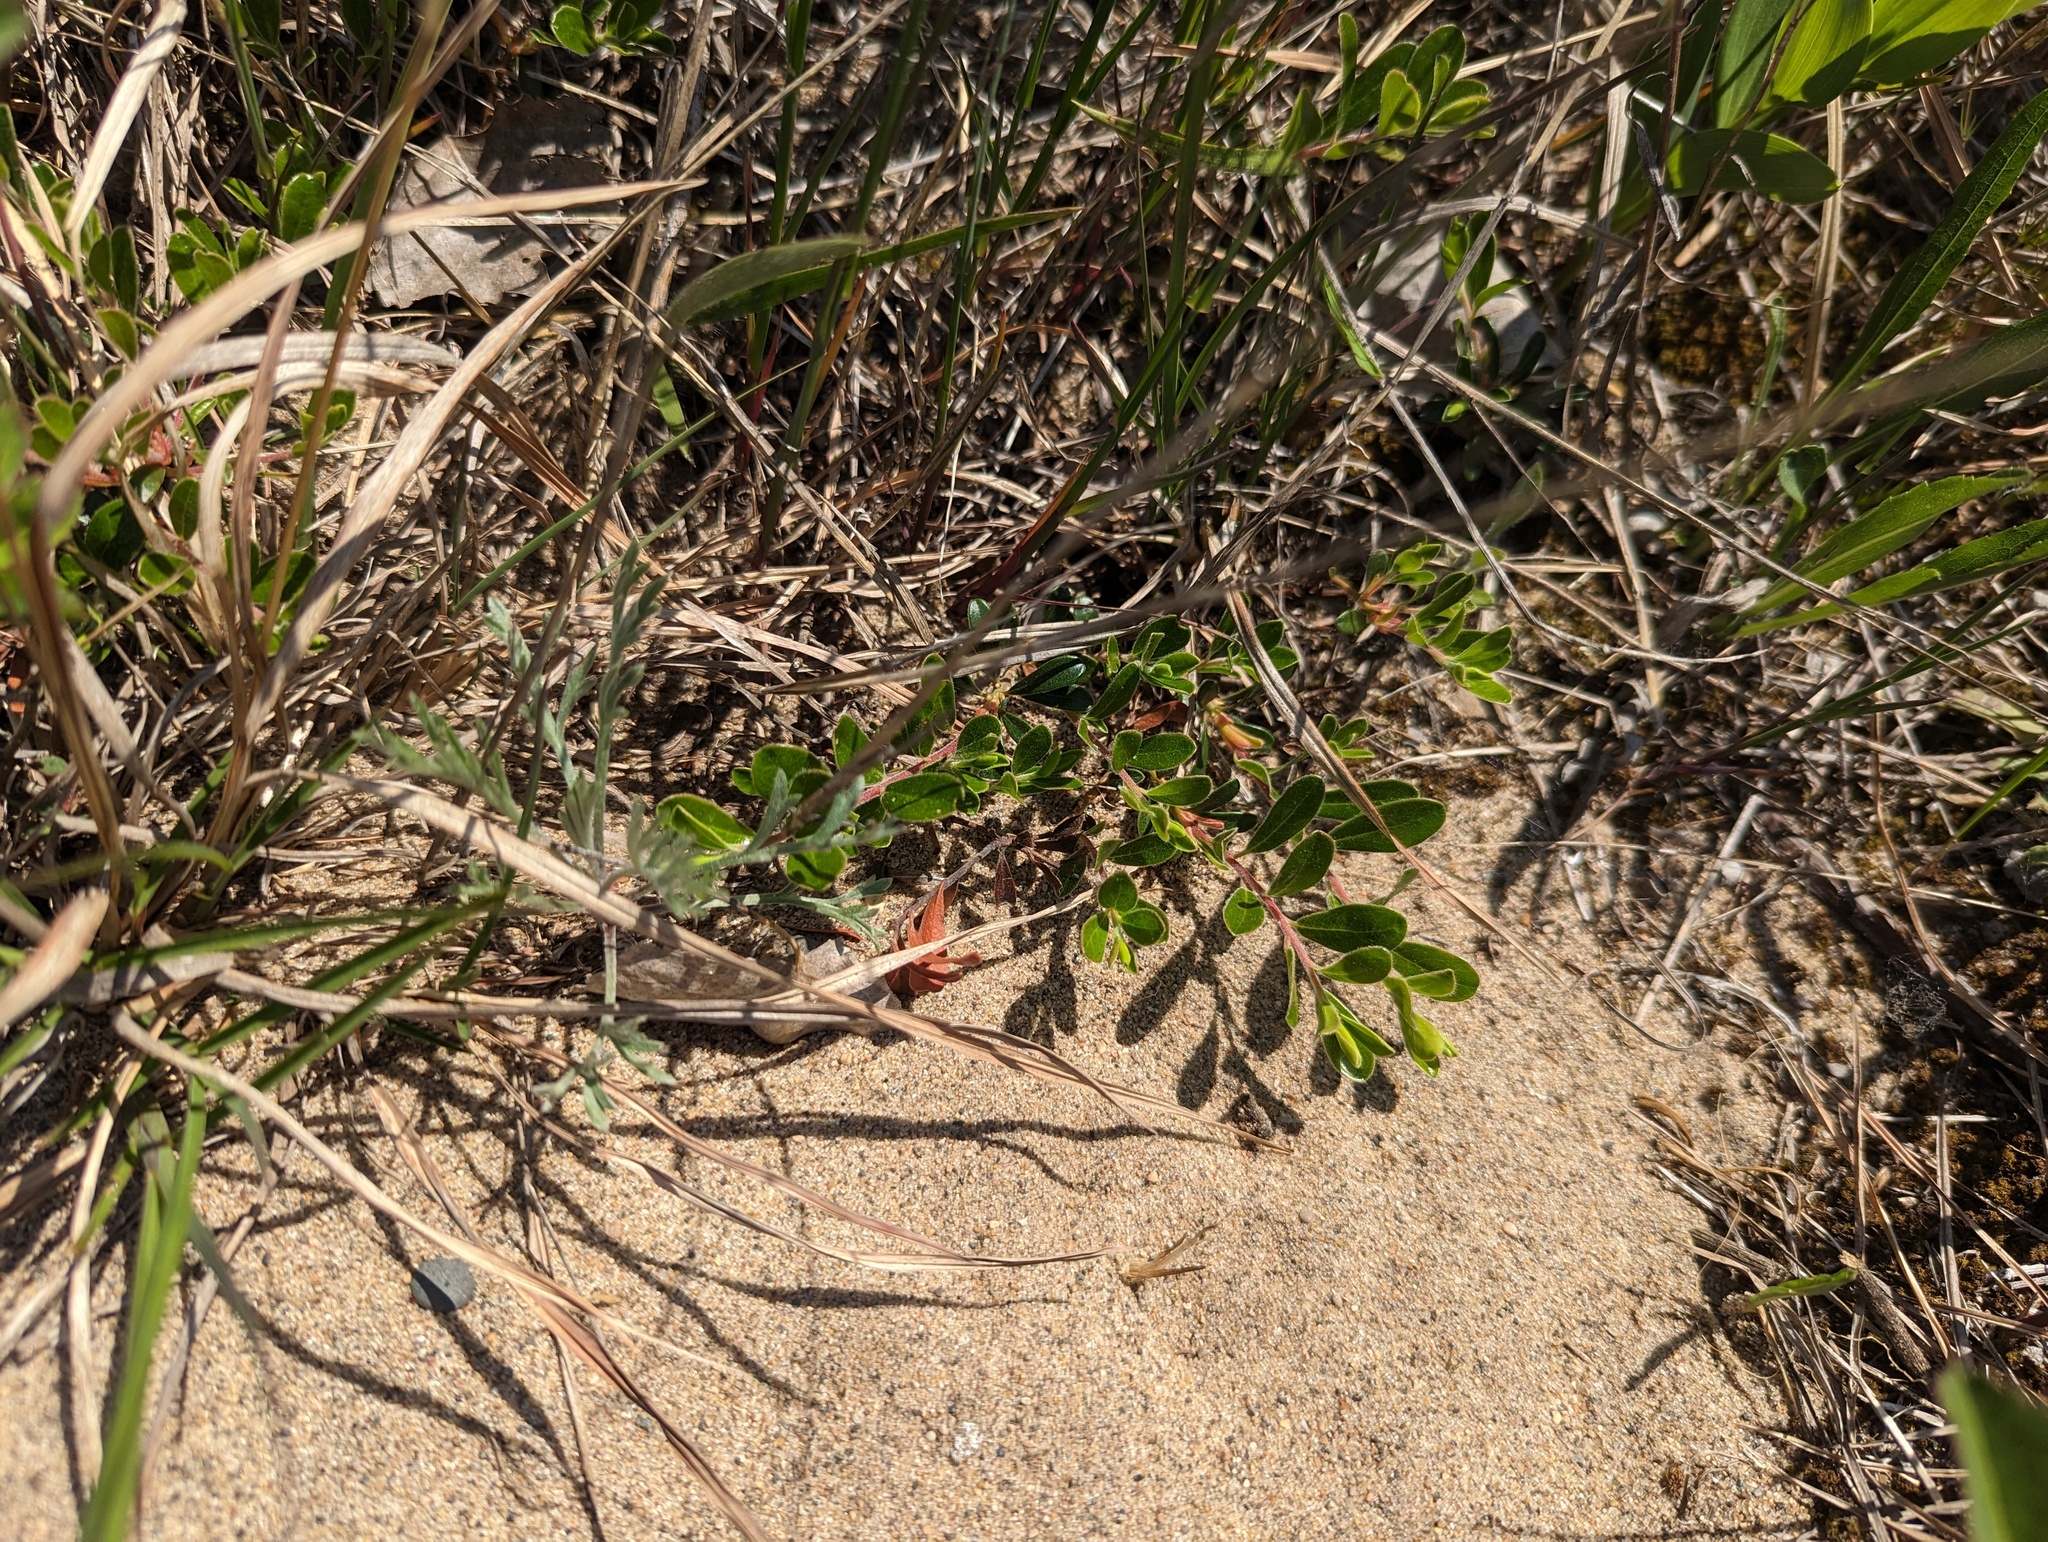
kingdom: Plantae
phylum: Tracheophyta
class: Magnoliopsida
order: Ericales
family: Ericaceae
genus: Arctostaphylos
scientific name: Arctostaphylos uva-ursi
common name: Bearberry
